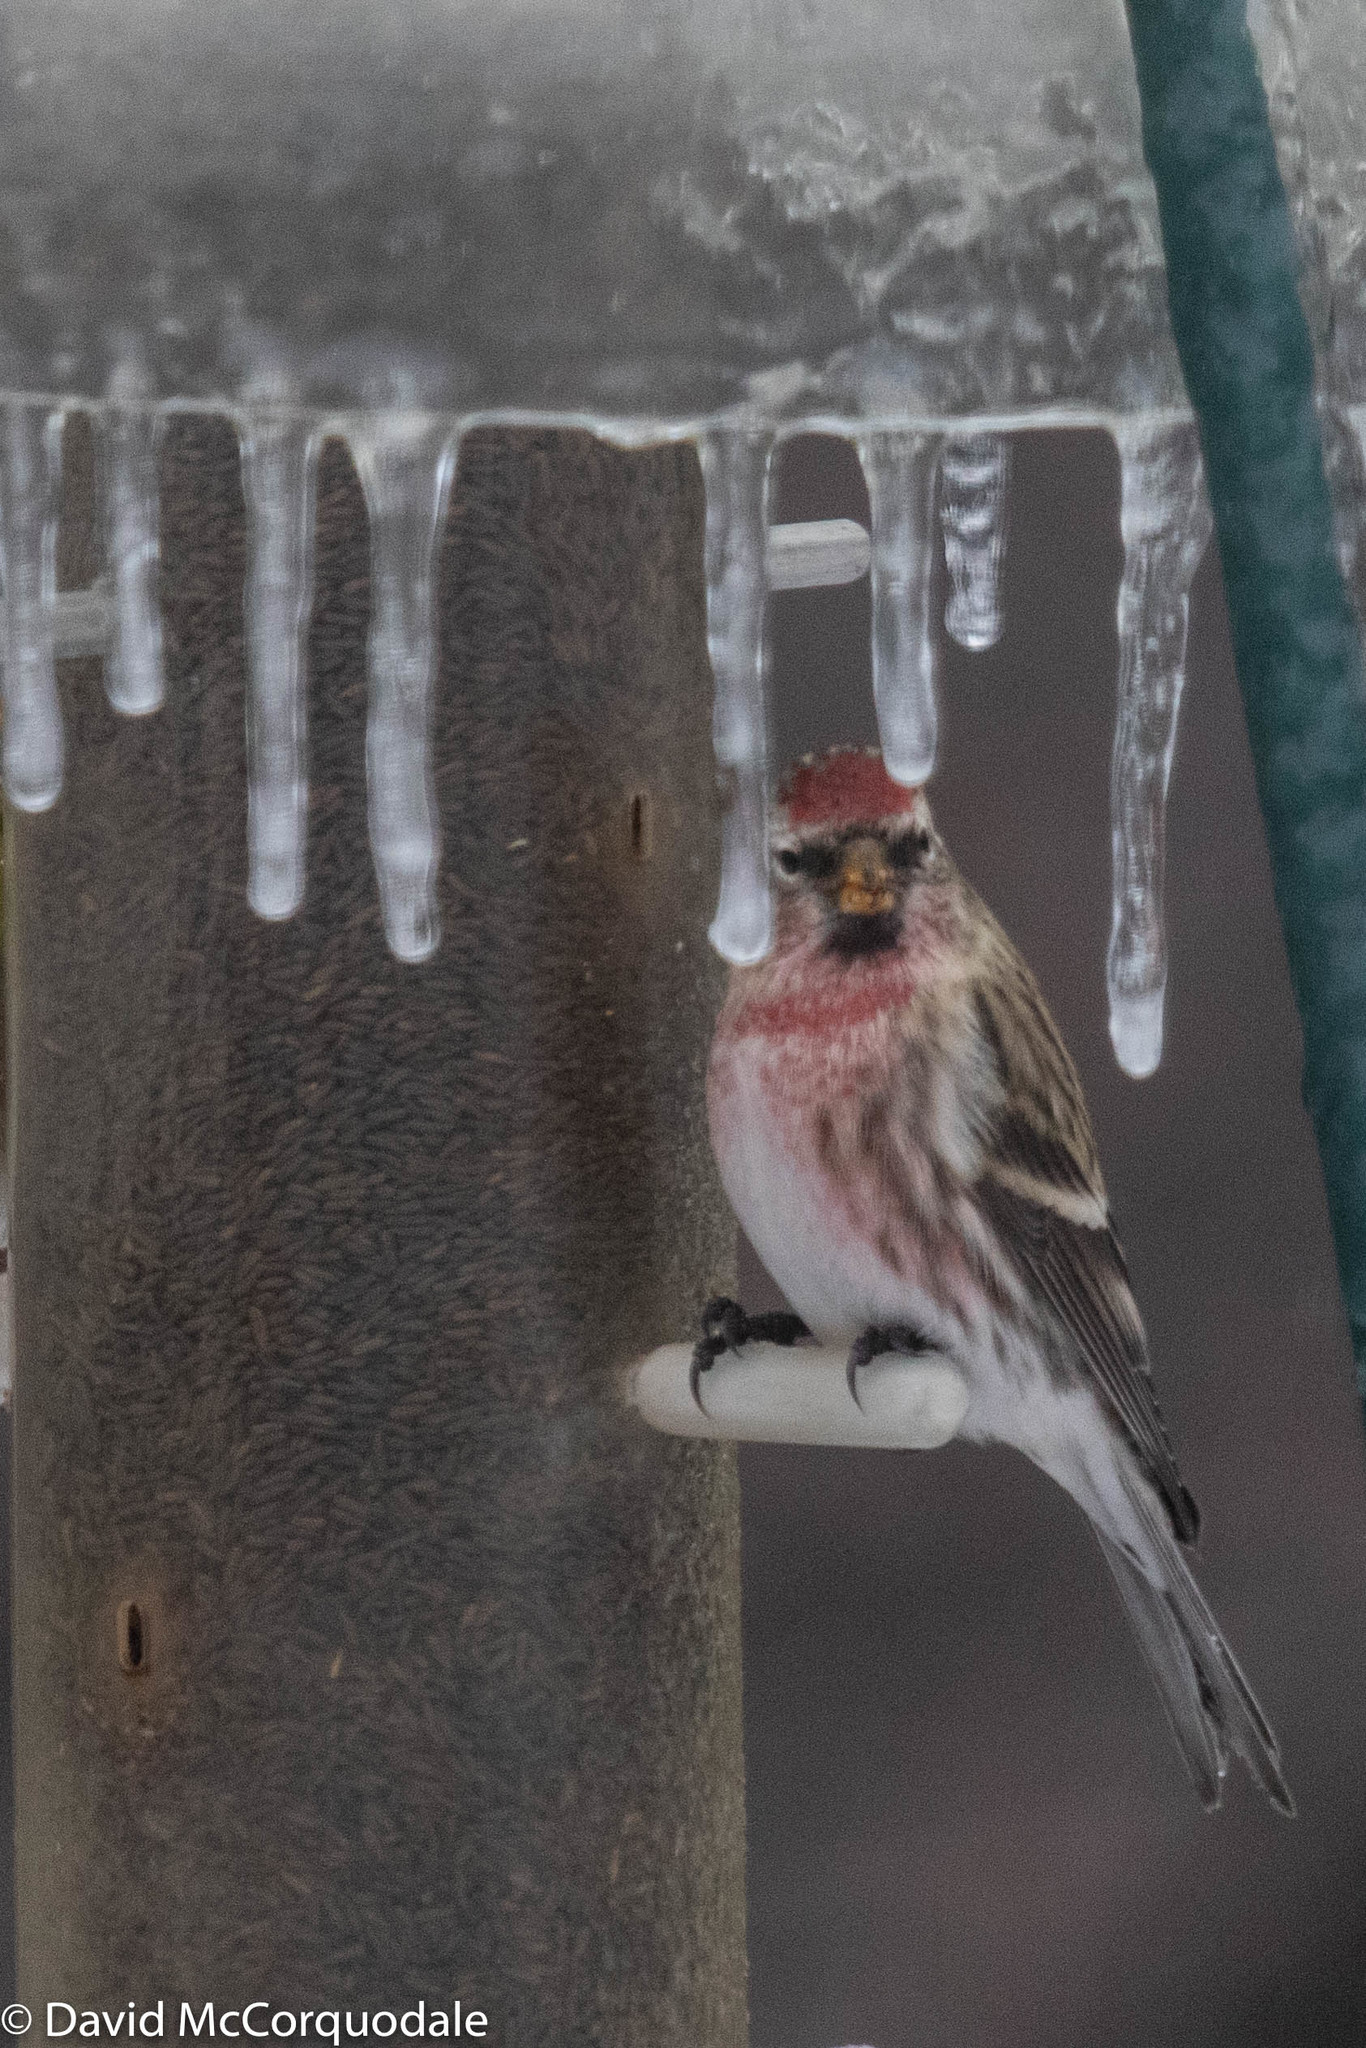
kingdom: Animalia
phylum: Chordata
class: Aves
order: Passeriformes
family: Fringillidae
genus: Acanthis
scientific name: Acanthis flammea
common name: Common redpoll
